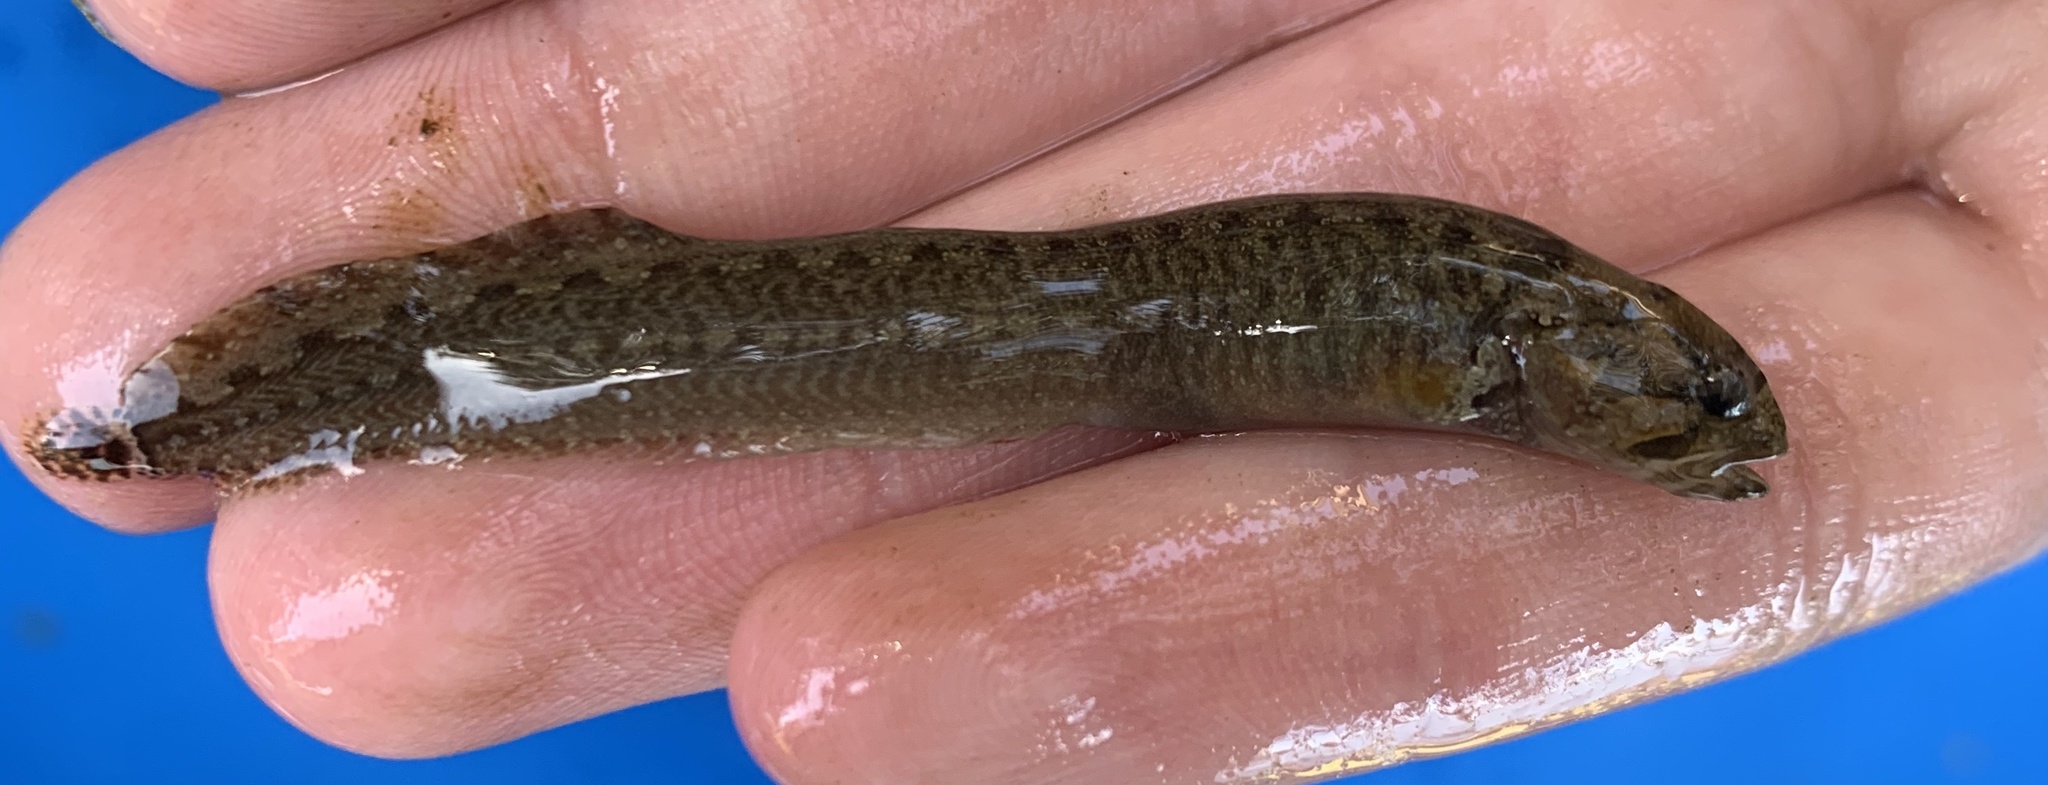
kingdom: Animalia
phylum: Chordata
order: Perciformes
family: Stichaeidae
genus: Anoplarchus
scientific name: Anoplarchus purpurescens
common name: High cockscomb
